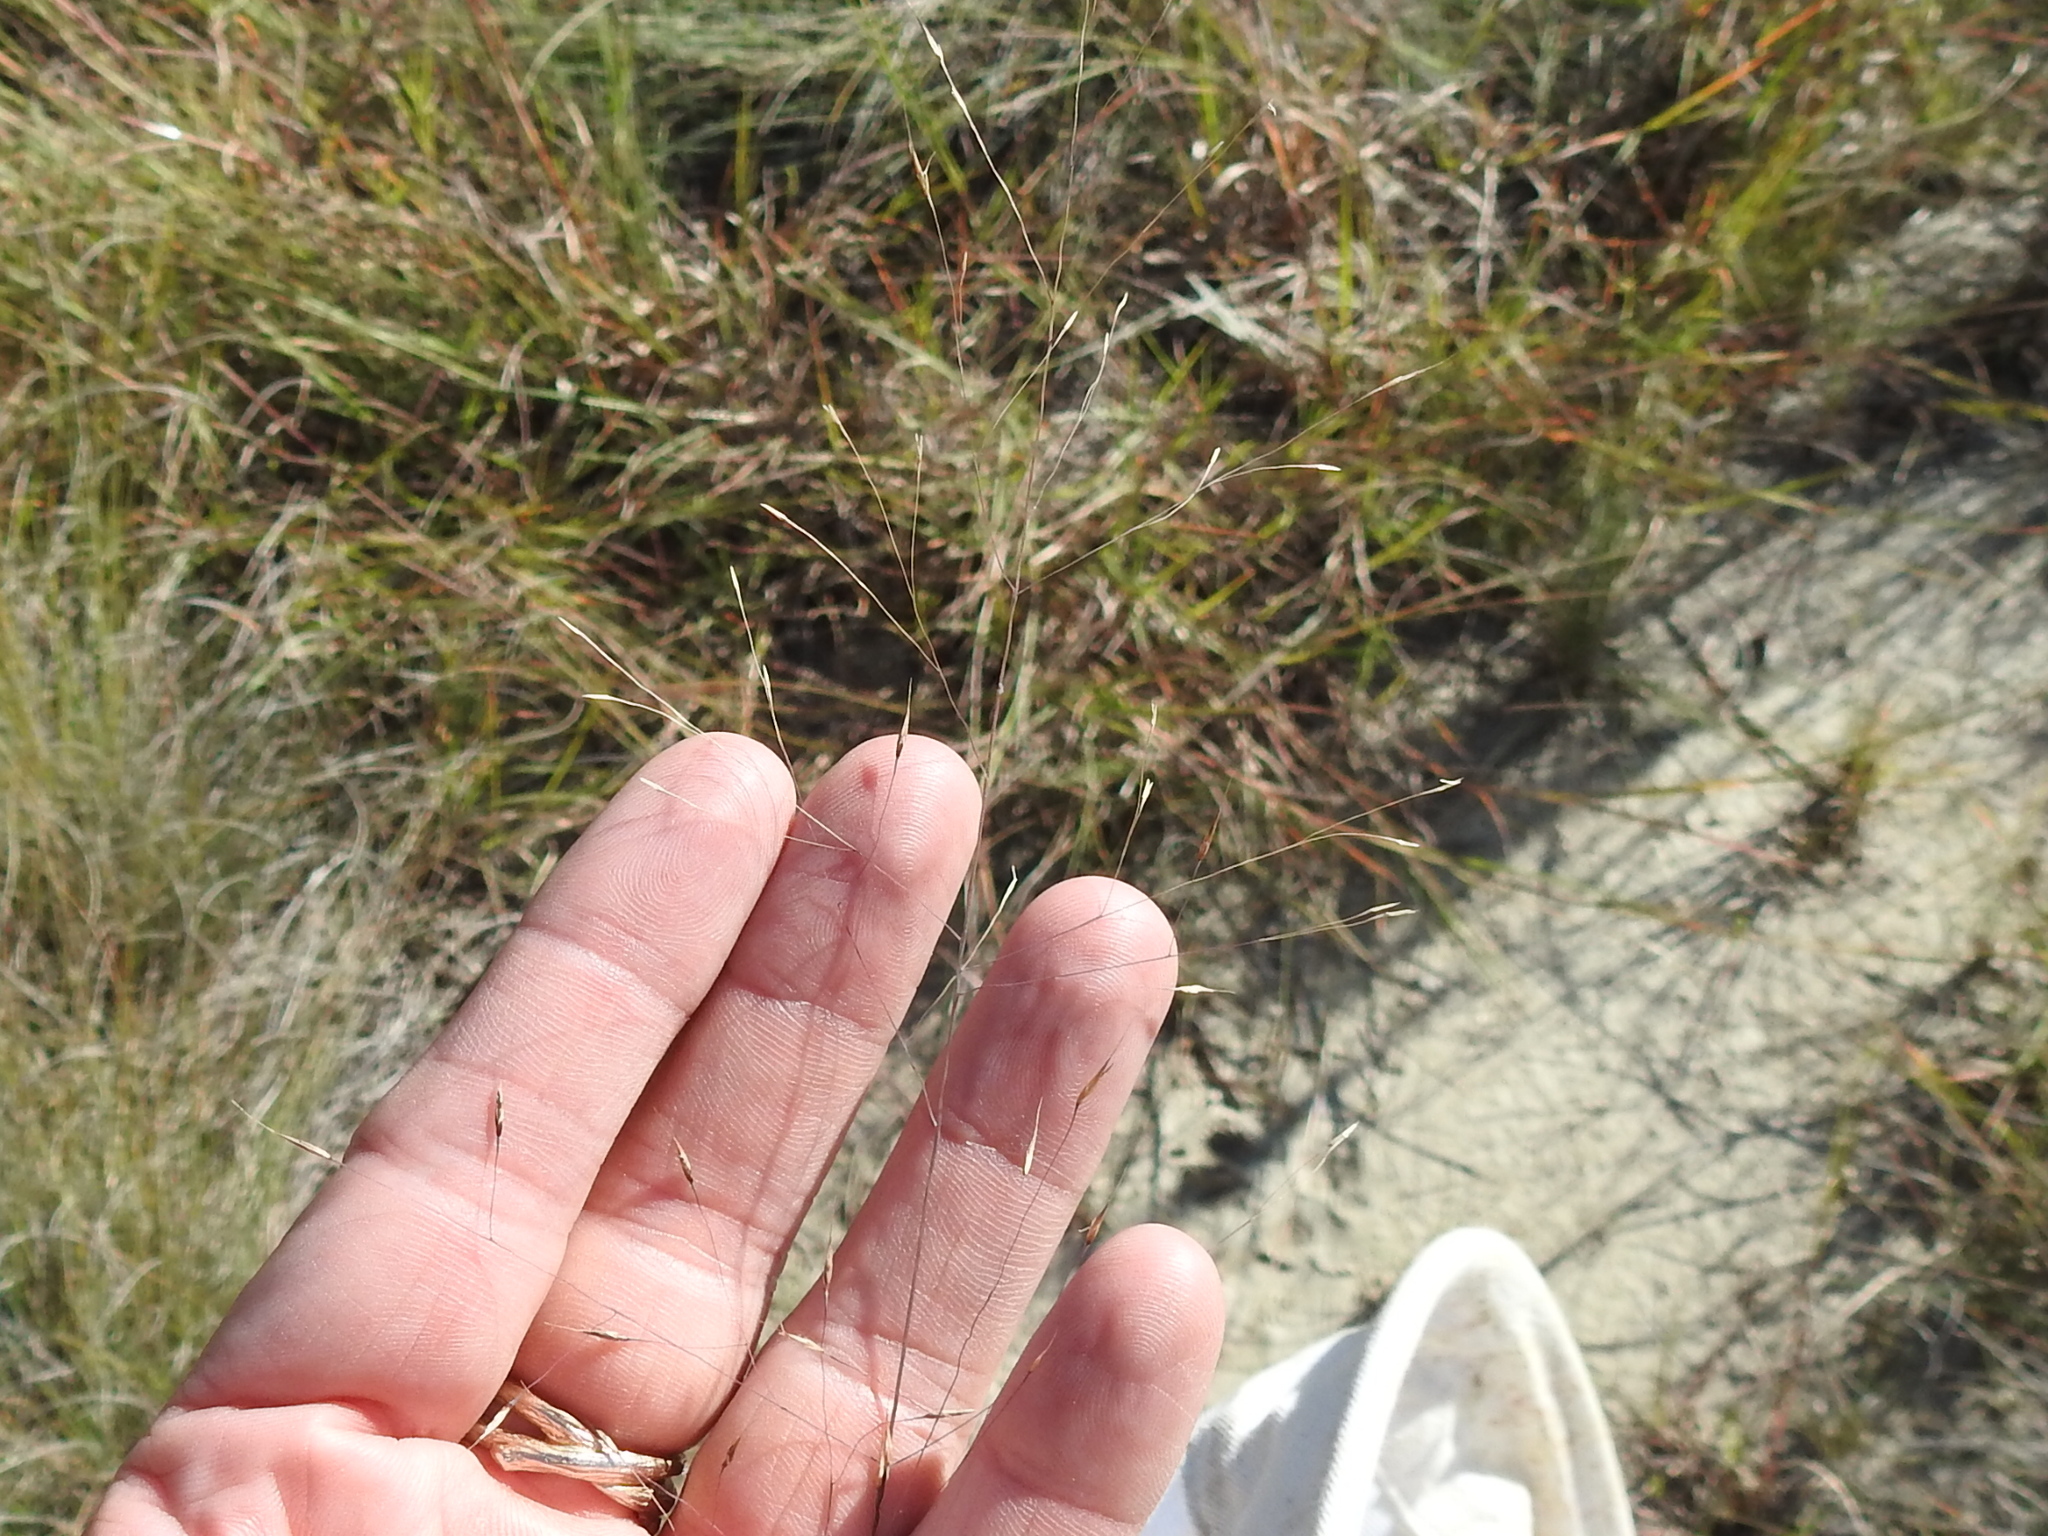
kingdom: Plantae
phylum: Tracheophyta
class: Liliopsida
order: Poales
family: Poaceae
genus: Muhlenbergia
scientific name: Muhlenbergia reverchonii
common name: Seep muhly
